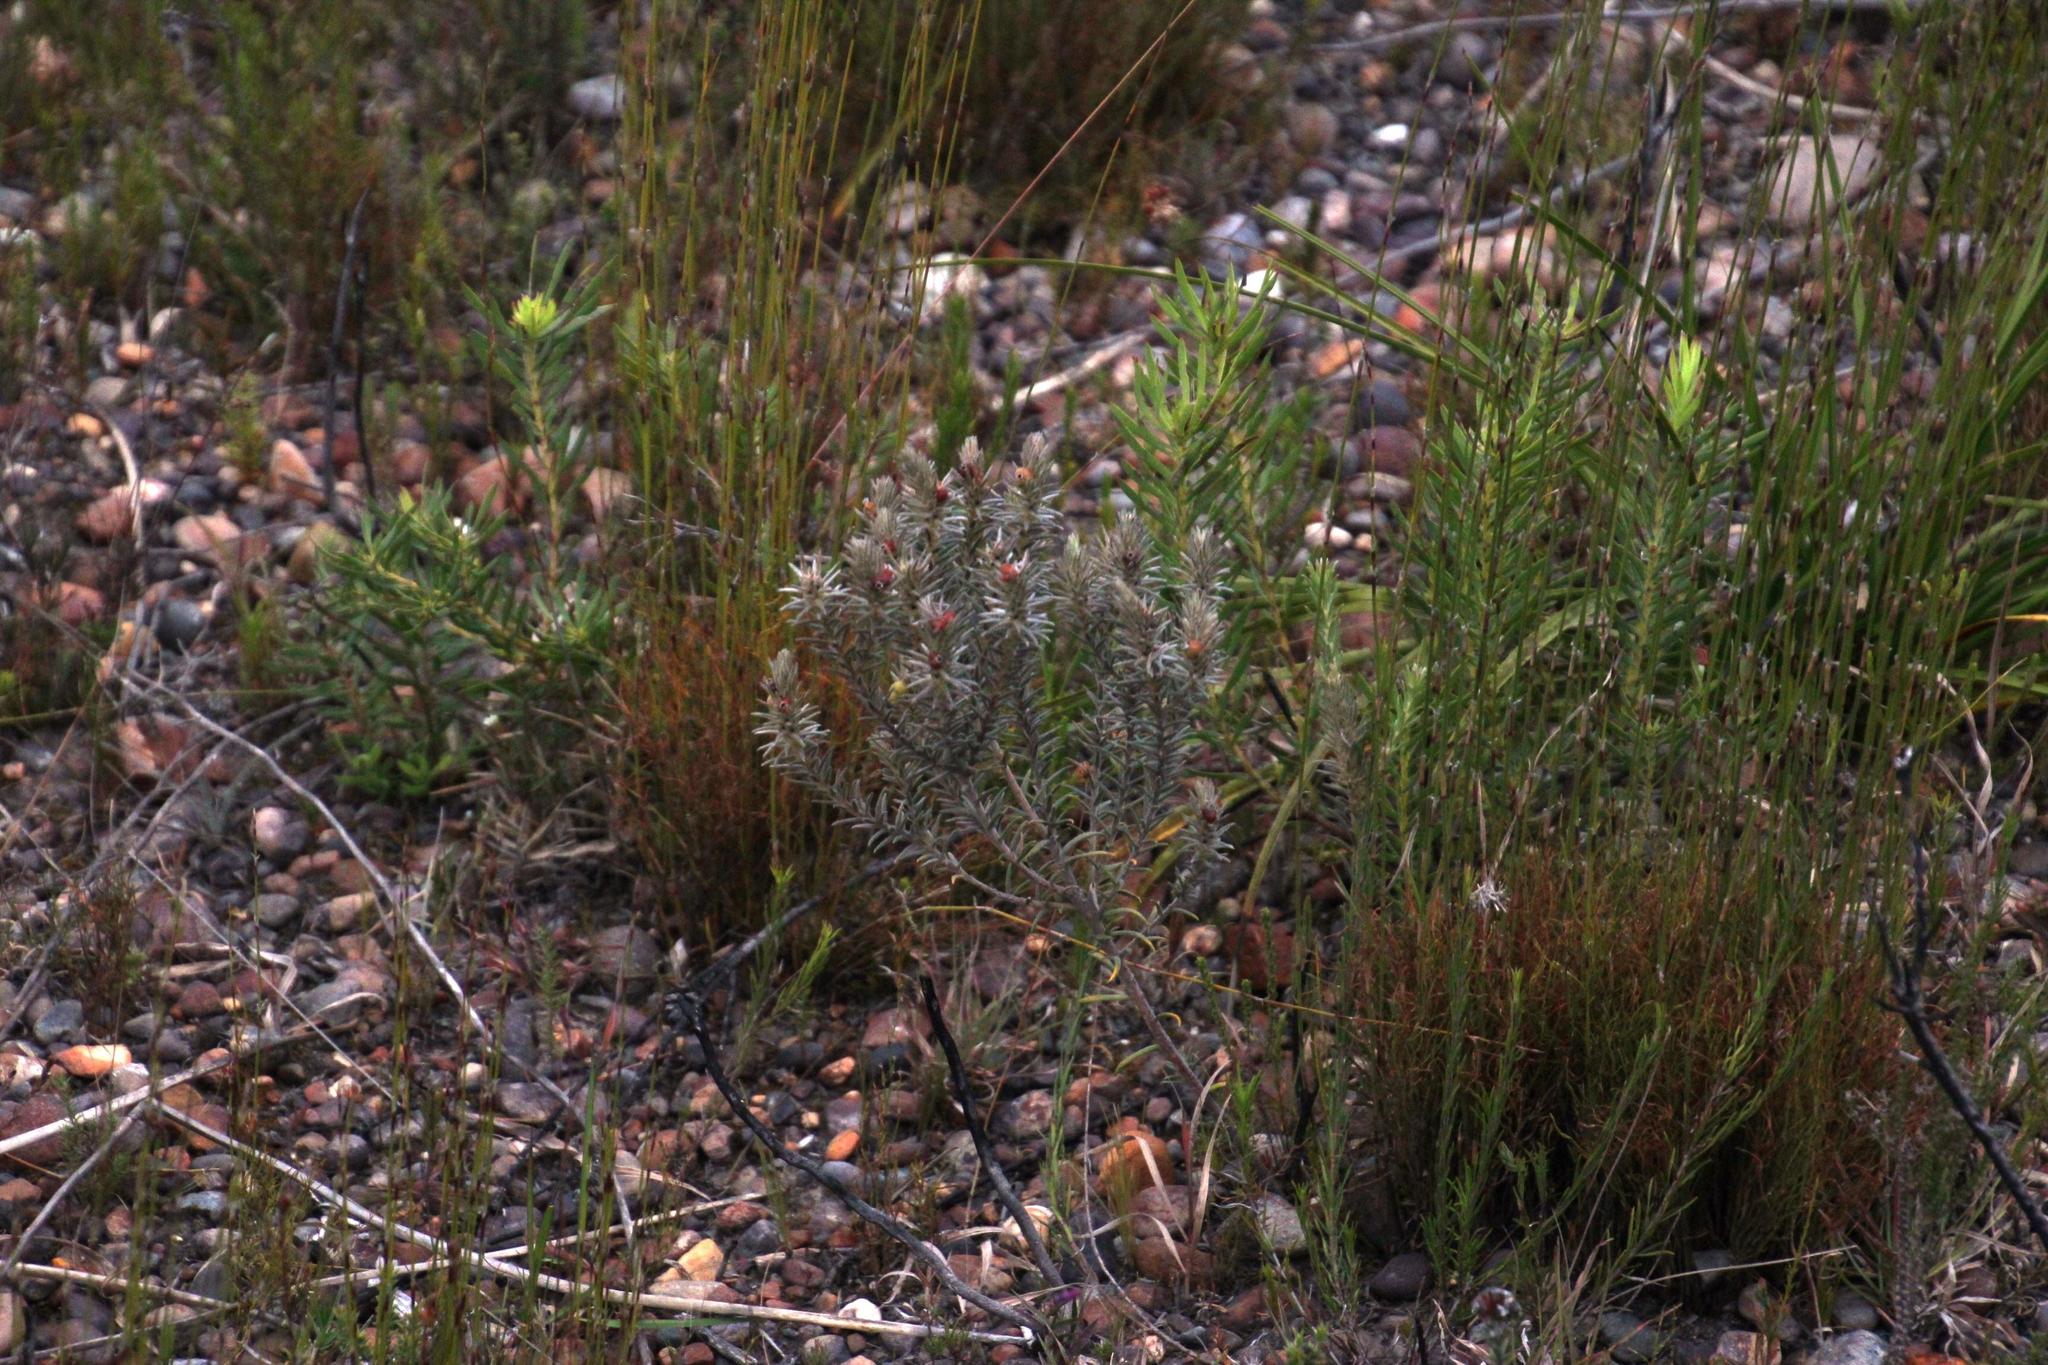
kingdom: Plantae
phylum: Tracheophyta
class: Magnoliopsida
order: Rosales
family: Rhamnaceae
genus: Phylica
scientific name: Phylica velutina
